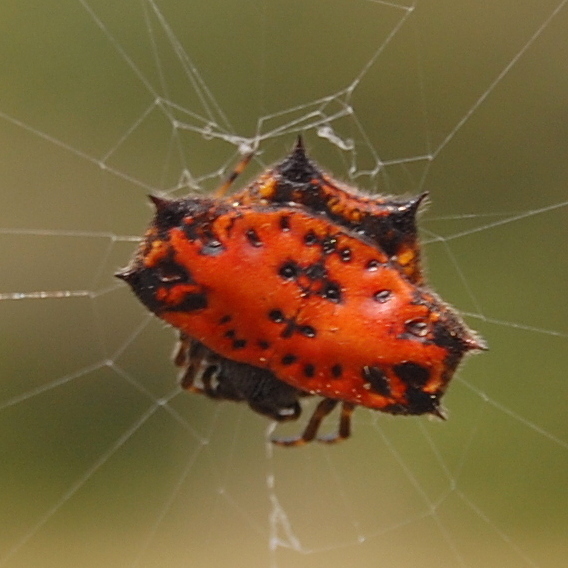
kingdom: Animalia
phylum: Arthropoda
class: Arachnida
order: Araneae
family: Araneidae
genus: Gasteracantha
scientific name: Gasteracantha cancriformis
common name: Orb weavers
